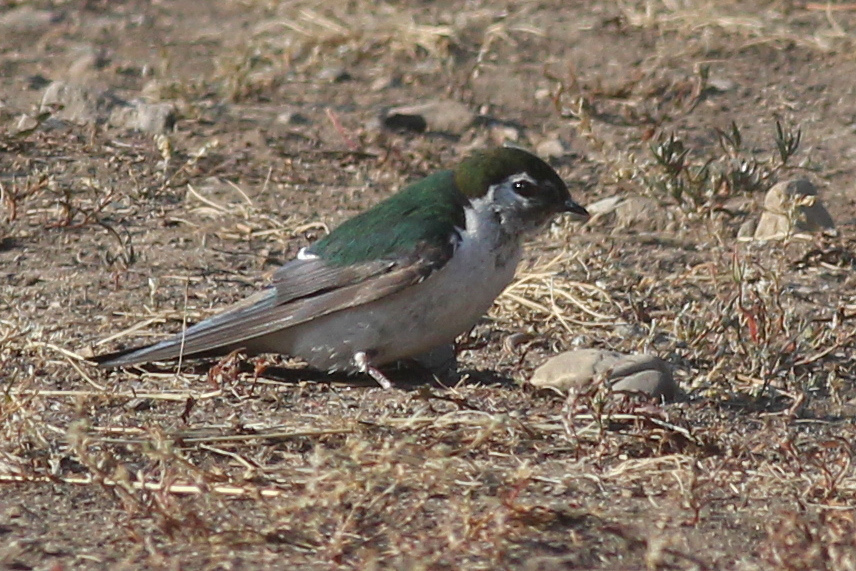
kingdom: Animalia
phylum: Chordata
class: Aves
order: Passeriformes
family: Hirundinidae
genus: Tachycineta
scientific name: Tachycineta thalassina
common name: Violet-green swallow
